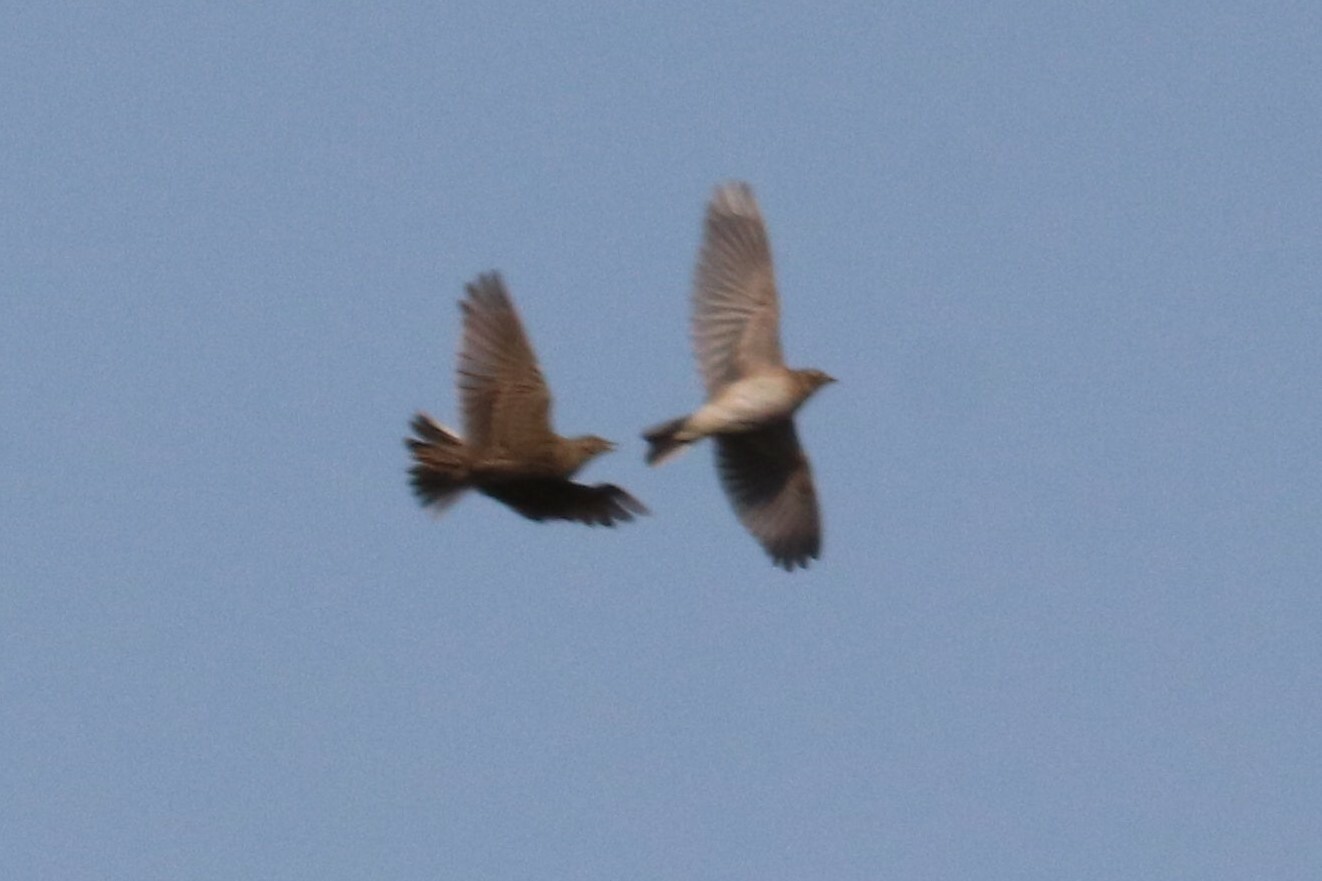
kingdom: Animalia
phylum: Chordata
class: Aves
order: Passeriformes
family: Alaudidae
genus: Alauda
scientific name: Alauda arvensis
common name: Eurasian skylark
